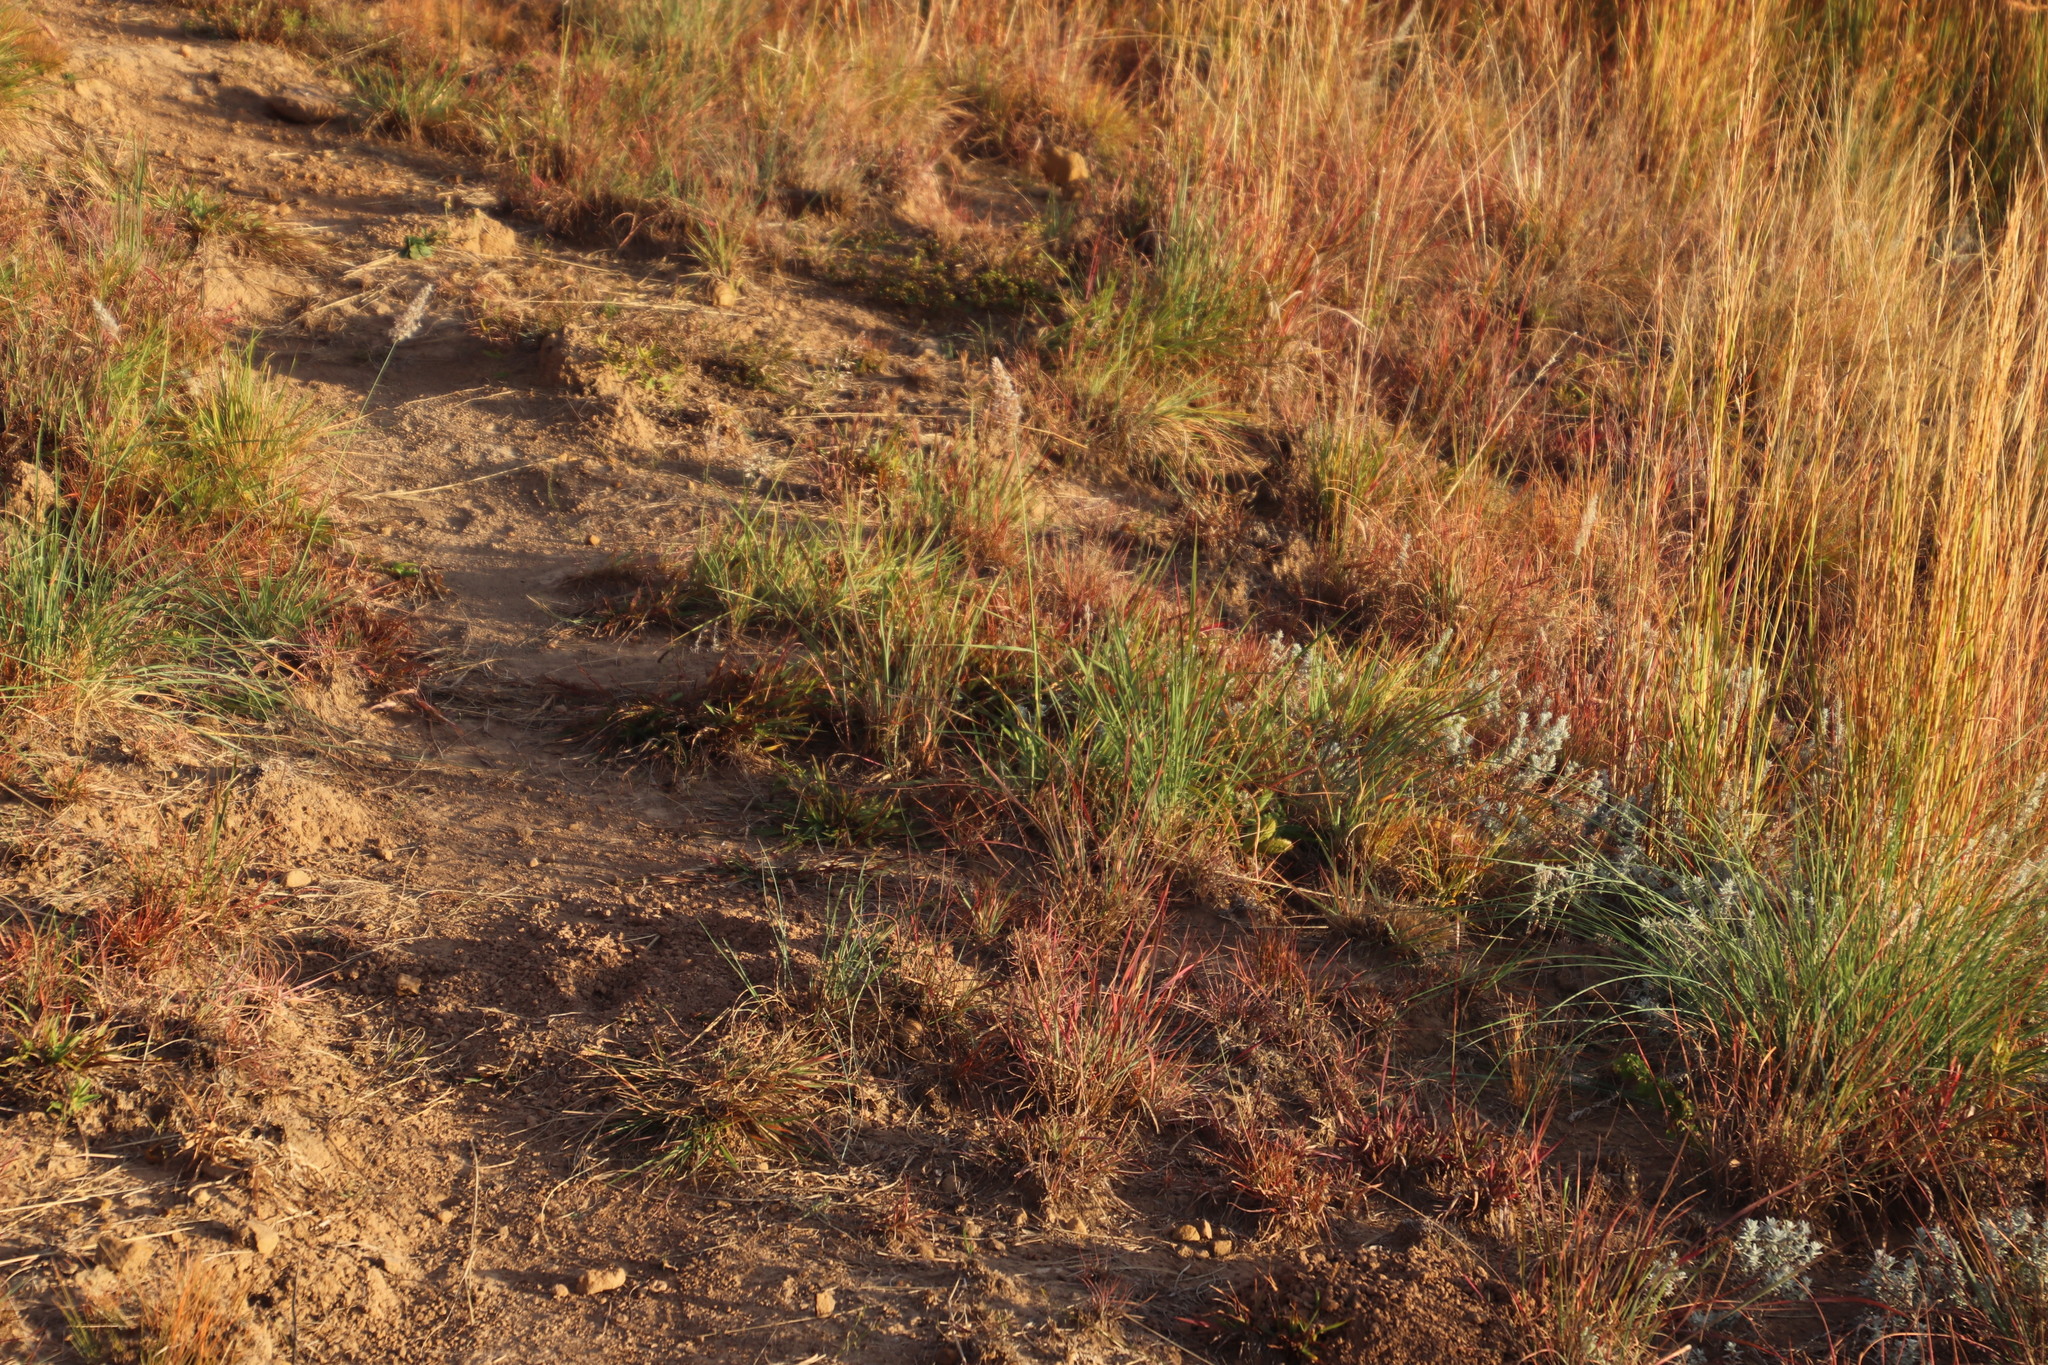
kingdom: Plantae
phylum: Tracheophyta
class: Liliopsida
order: Poales
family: Poaceae
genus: Melinis
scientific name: Melinis repens
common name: Rose natal grass
